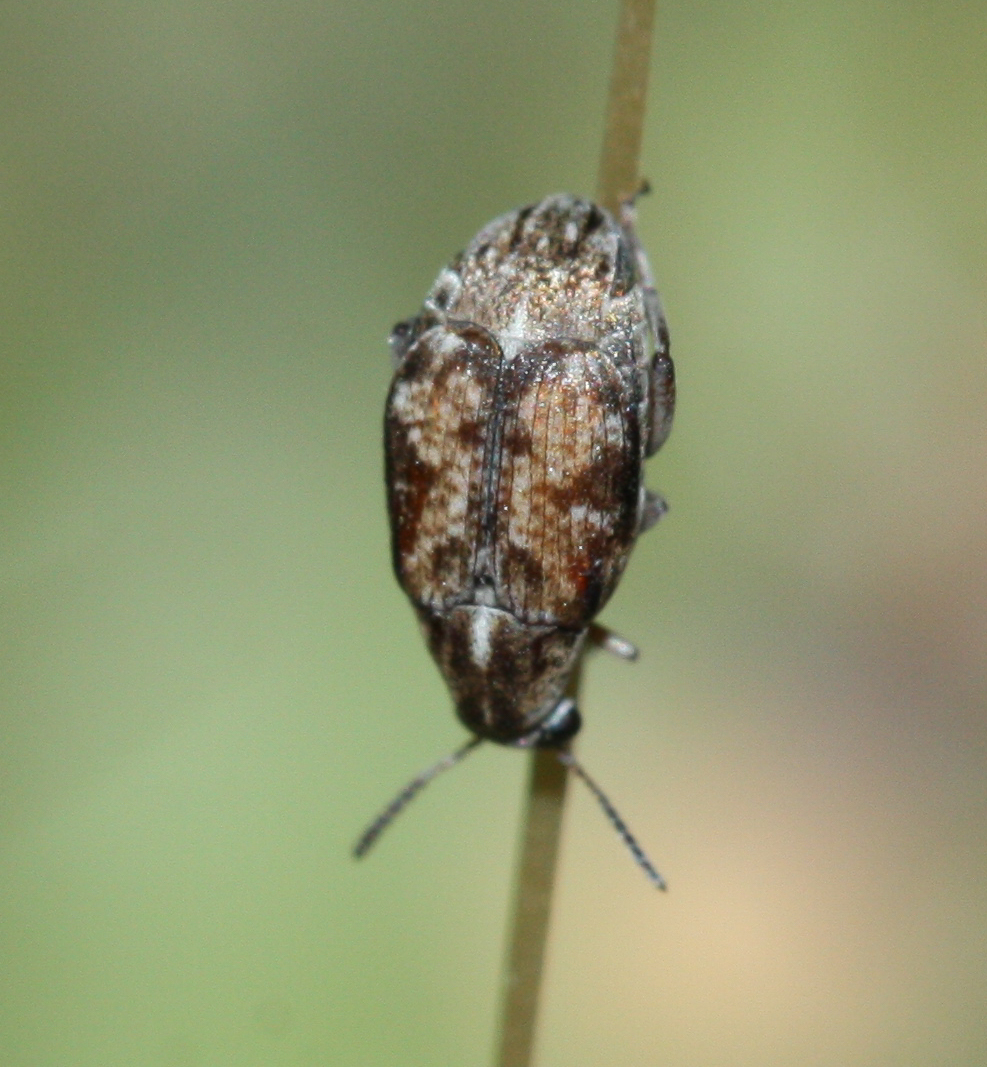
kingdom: Animalia
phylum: Arthropoda
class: Insecta
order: Coleoptera
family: Chrysomelidae
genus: Algarobius
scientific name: Algarobius prosopis
